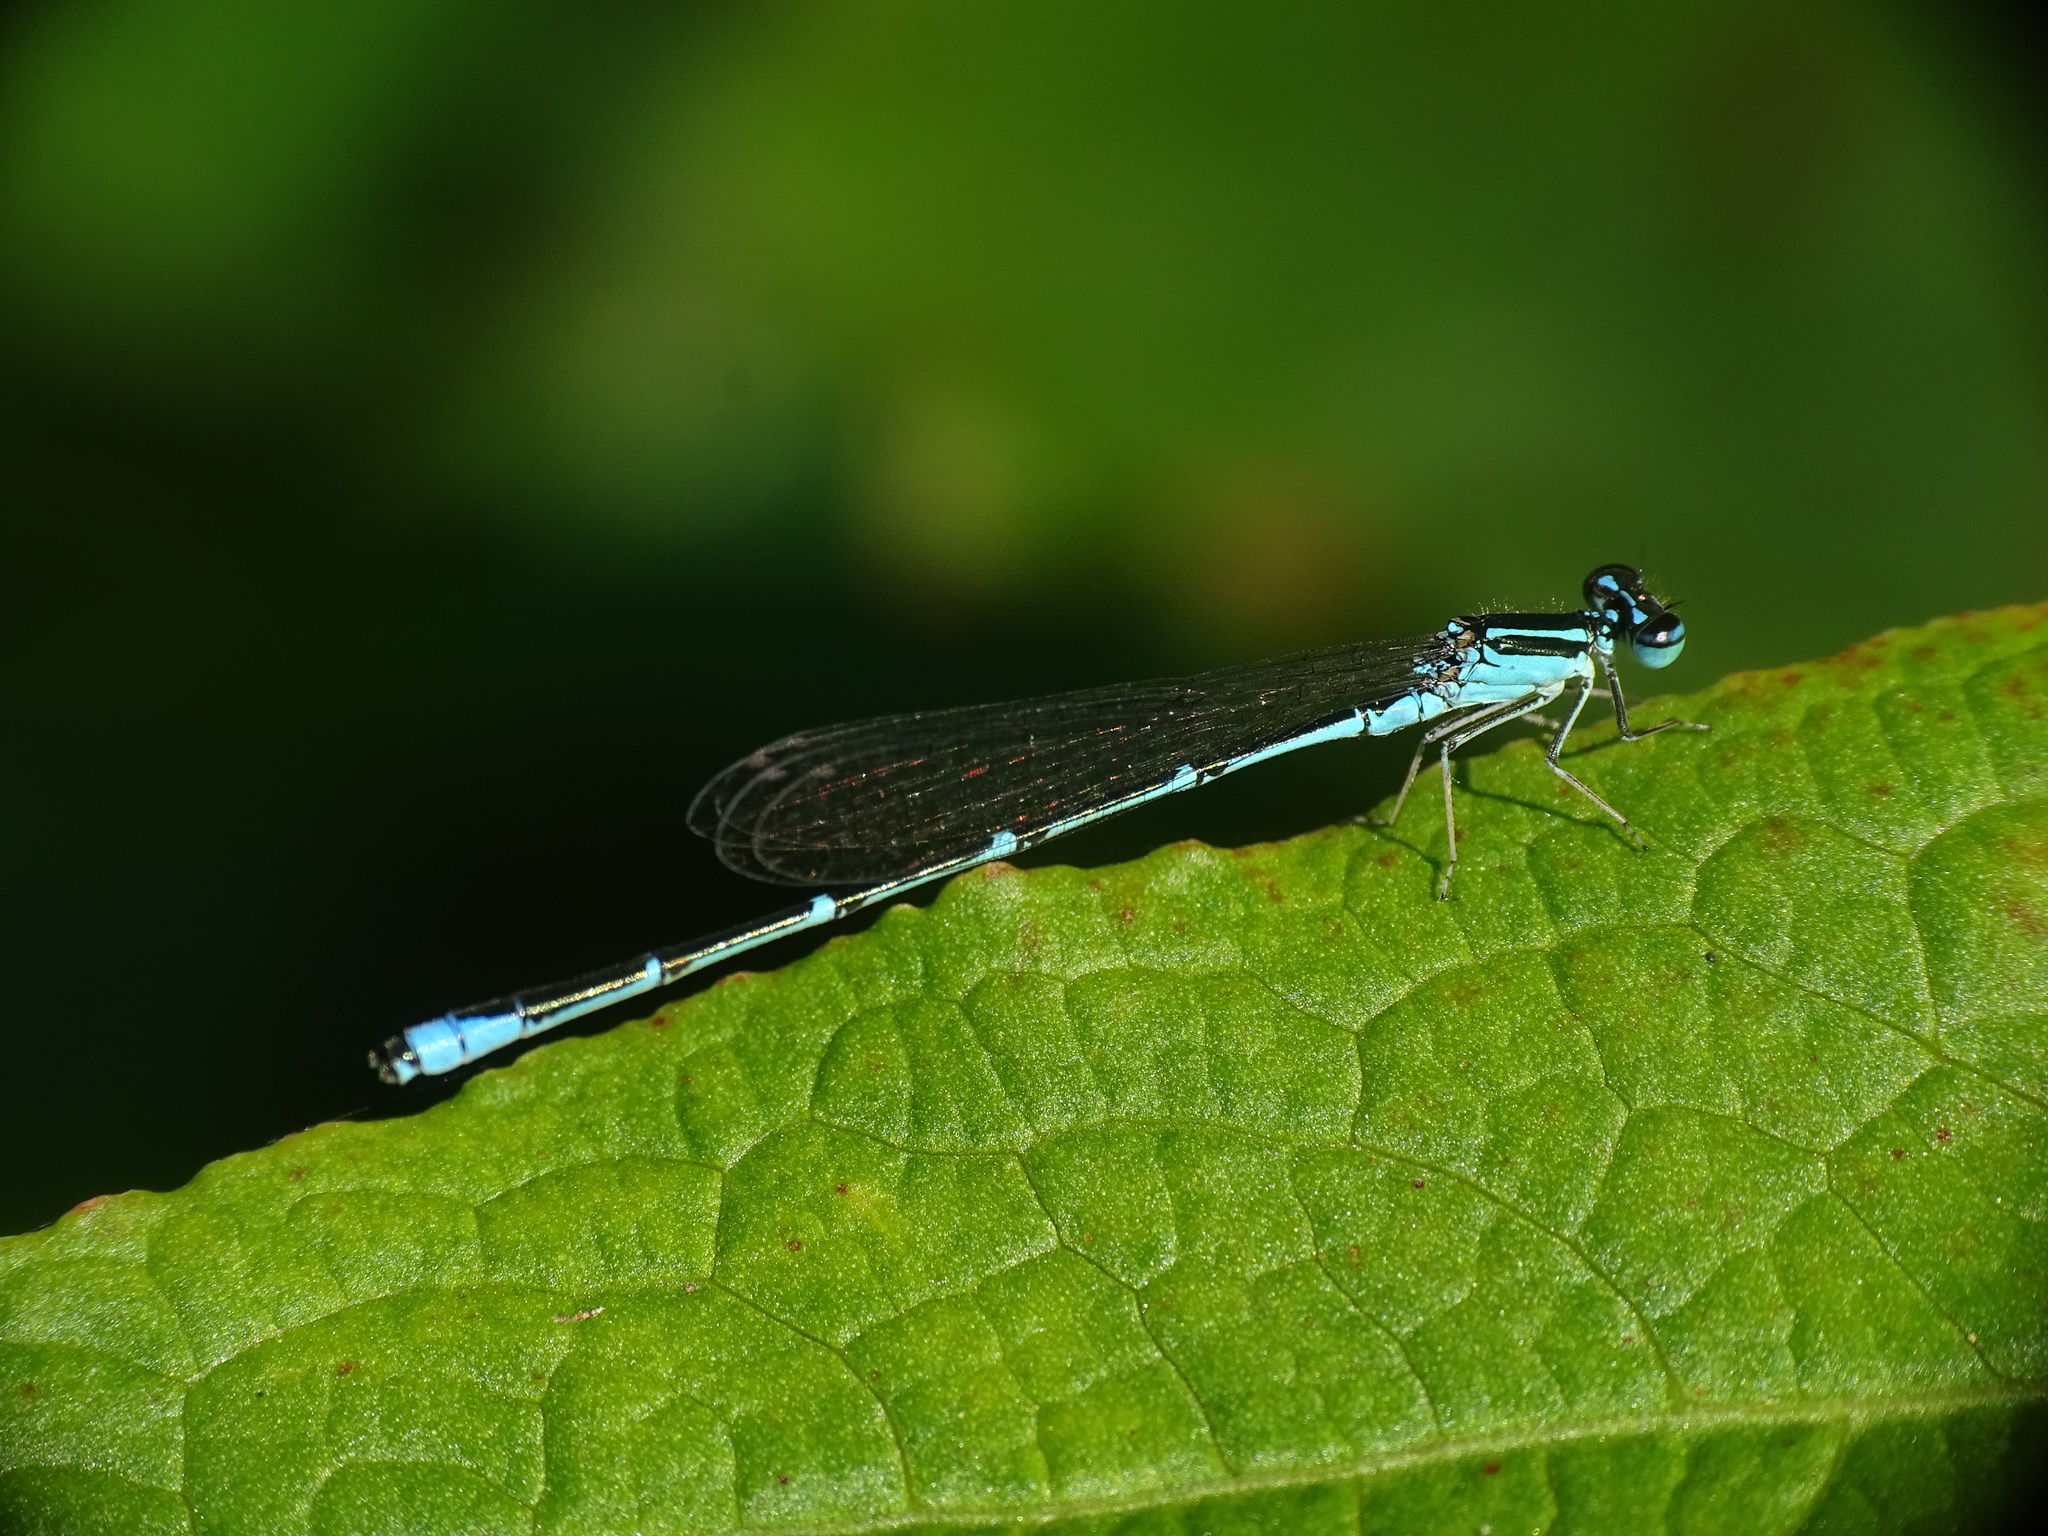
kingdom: Animalia
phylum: Arthropoda
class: Insecta
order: Odonata
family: Coenagrionidae
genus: Enallagma
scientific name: Enallagma exsulans
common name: Stream bluet
